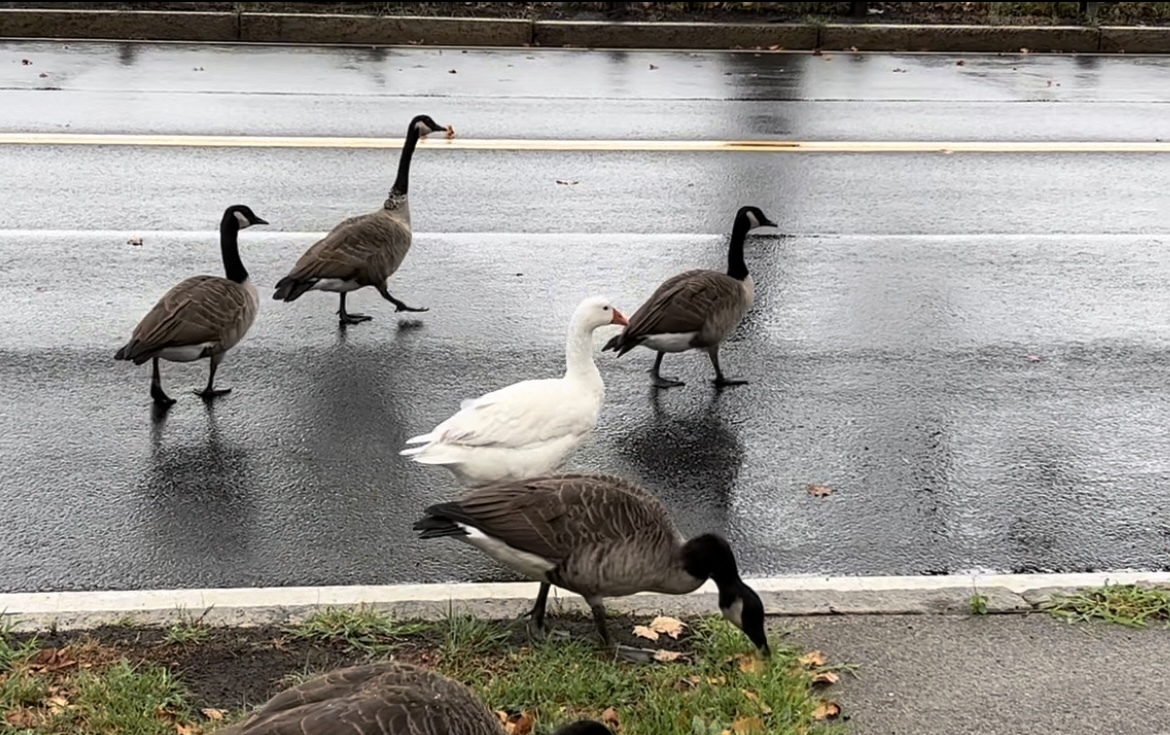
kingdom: Animalia
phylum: Chordata
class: Aves
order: Anseriformes
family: Anatidae
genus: Anser
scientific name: Anser anser
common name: Greylag goose
